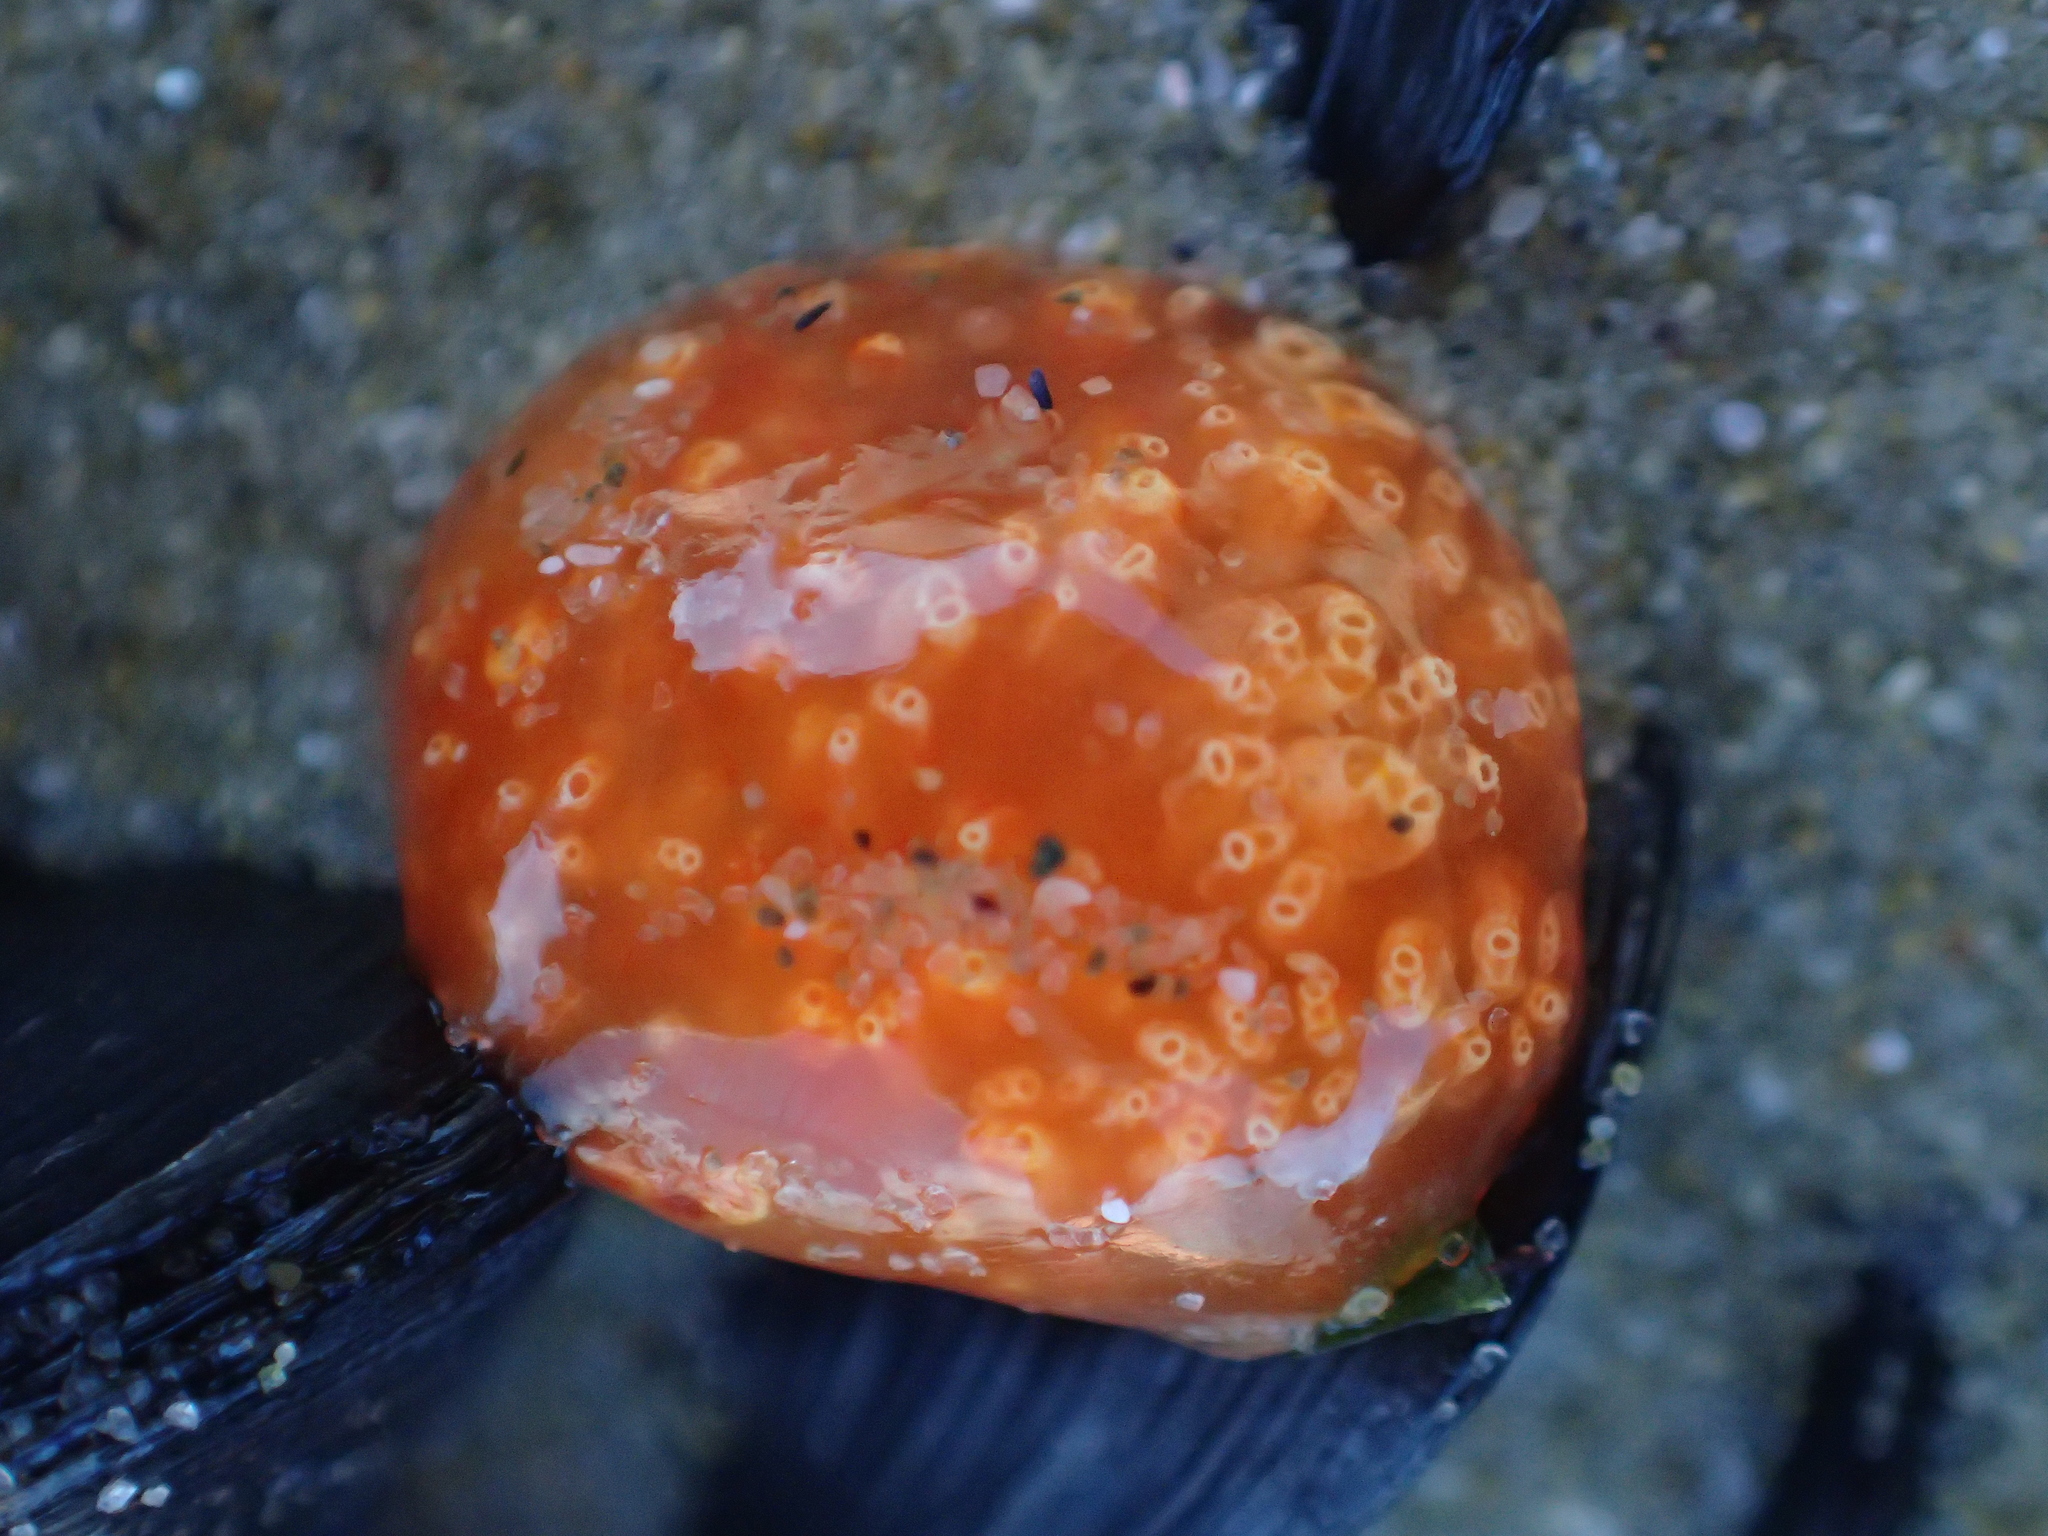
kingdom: Animalia
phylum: Chordata
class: Ascidiacea
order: Aplousobranchia
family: Polyclinidae
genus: Aplidium
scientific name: Aplidium benhami
